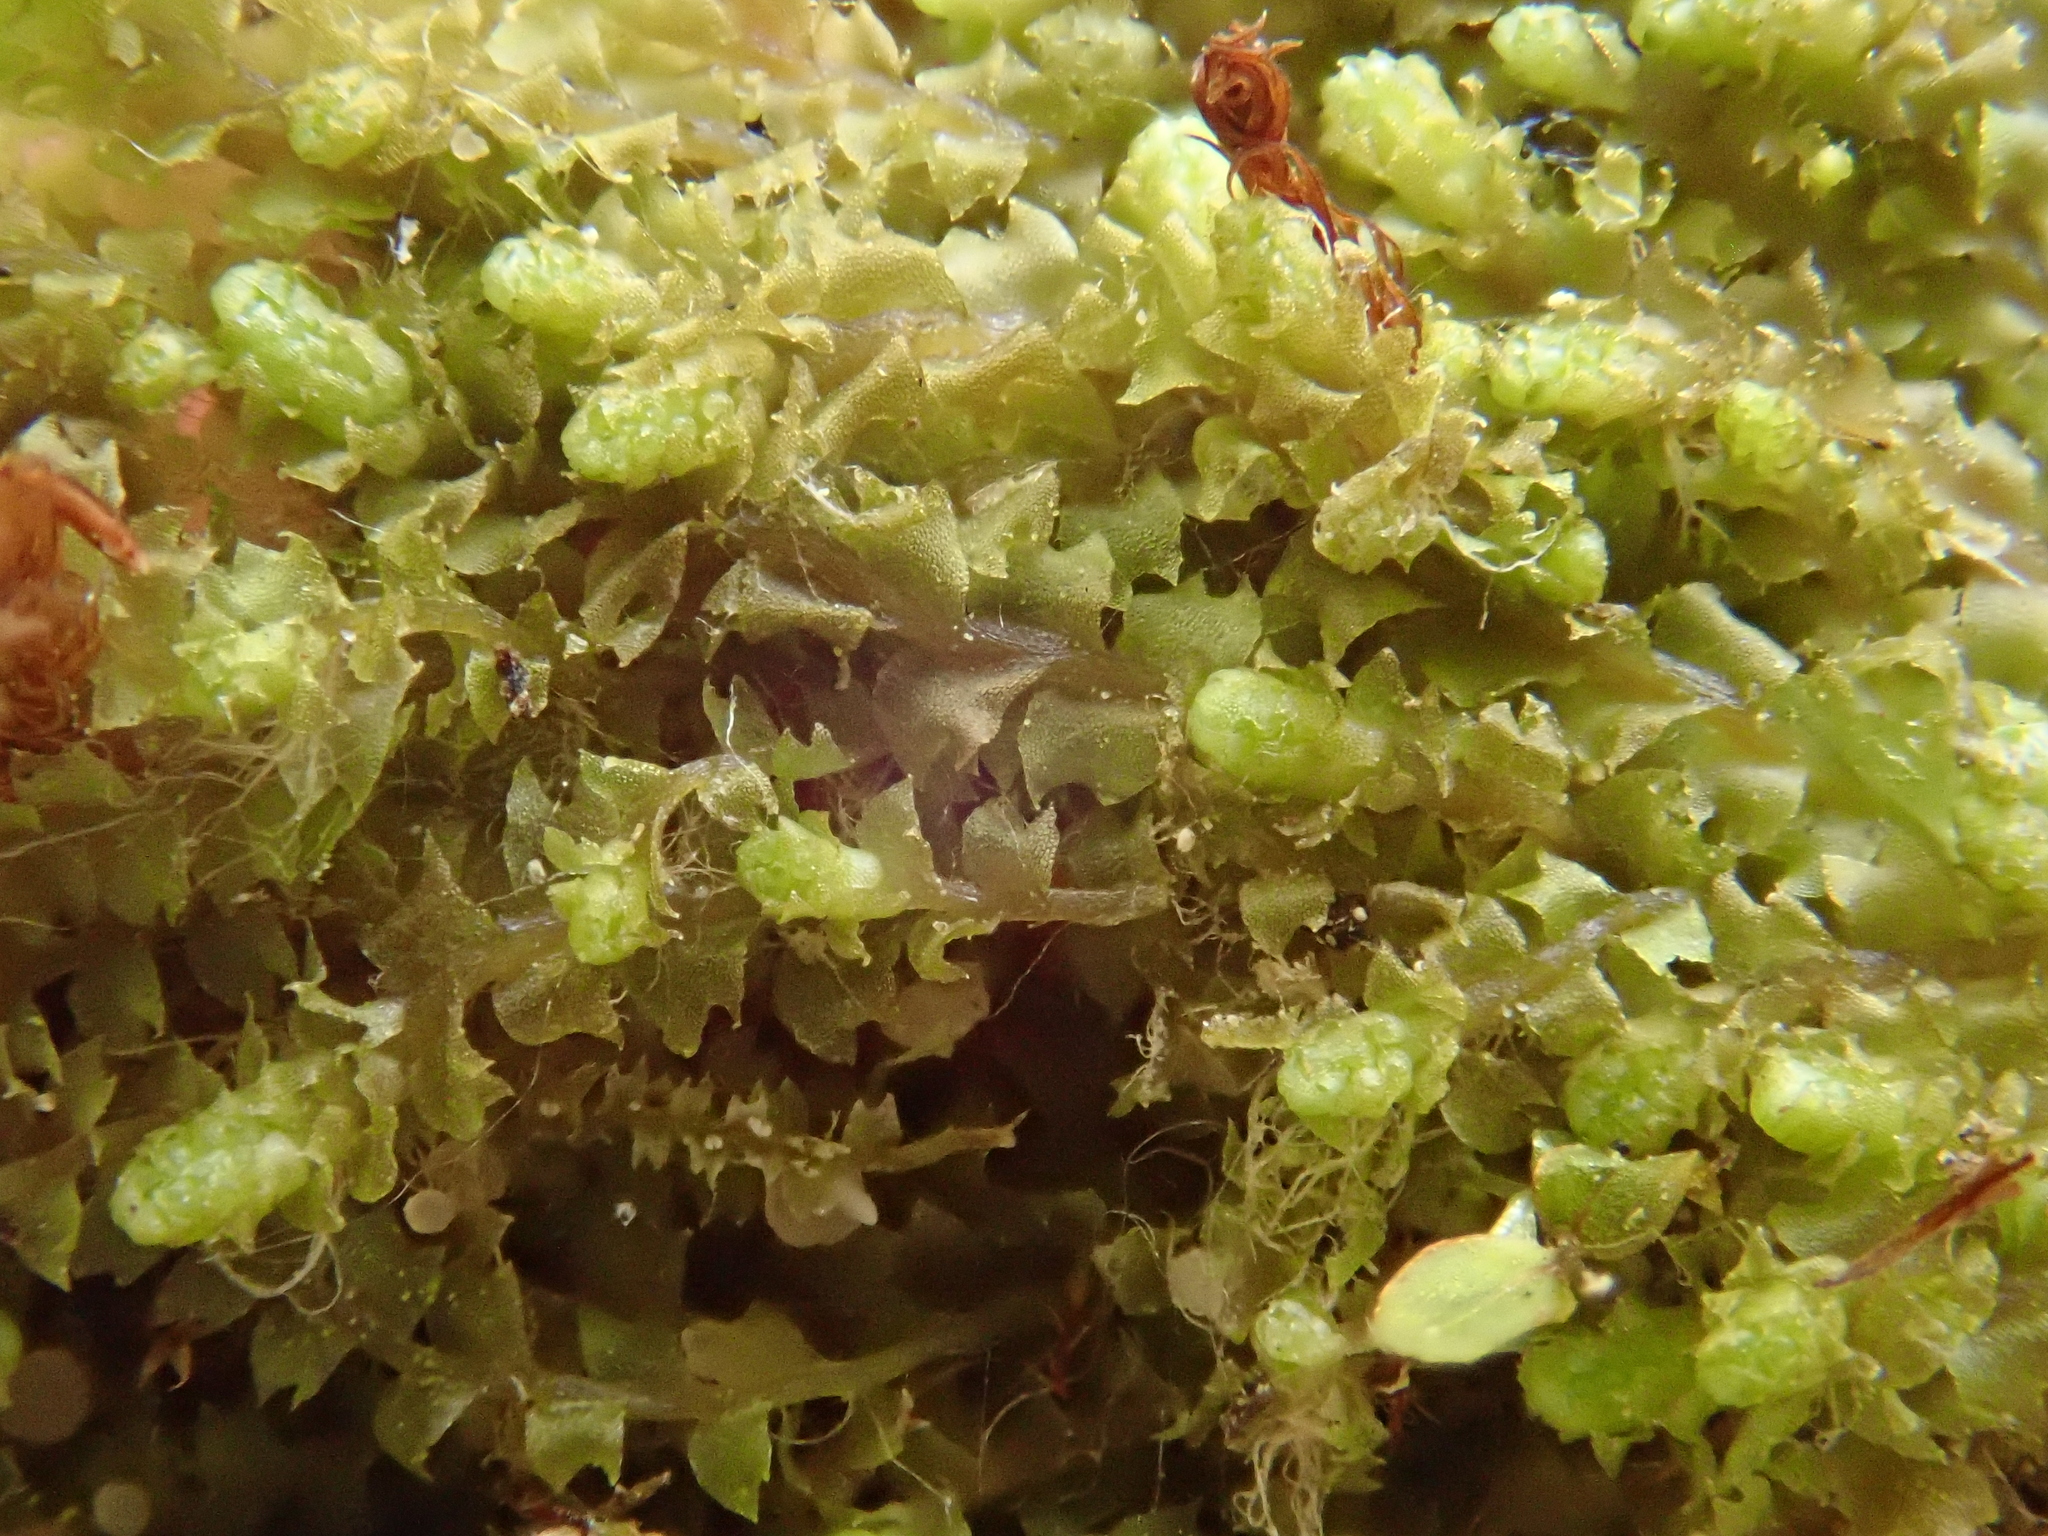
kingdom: Plantae
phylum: Marchantiophyta
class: Jungermanniopsida
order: Jungermanniales
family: Jungermanniaceae
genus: Mesoptychia
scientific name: Mesoptychia collaris
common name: Collared notchwort
